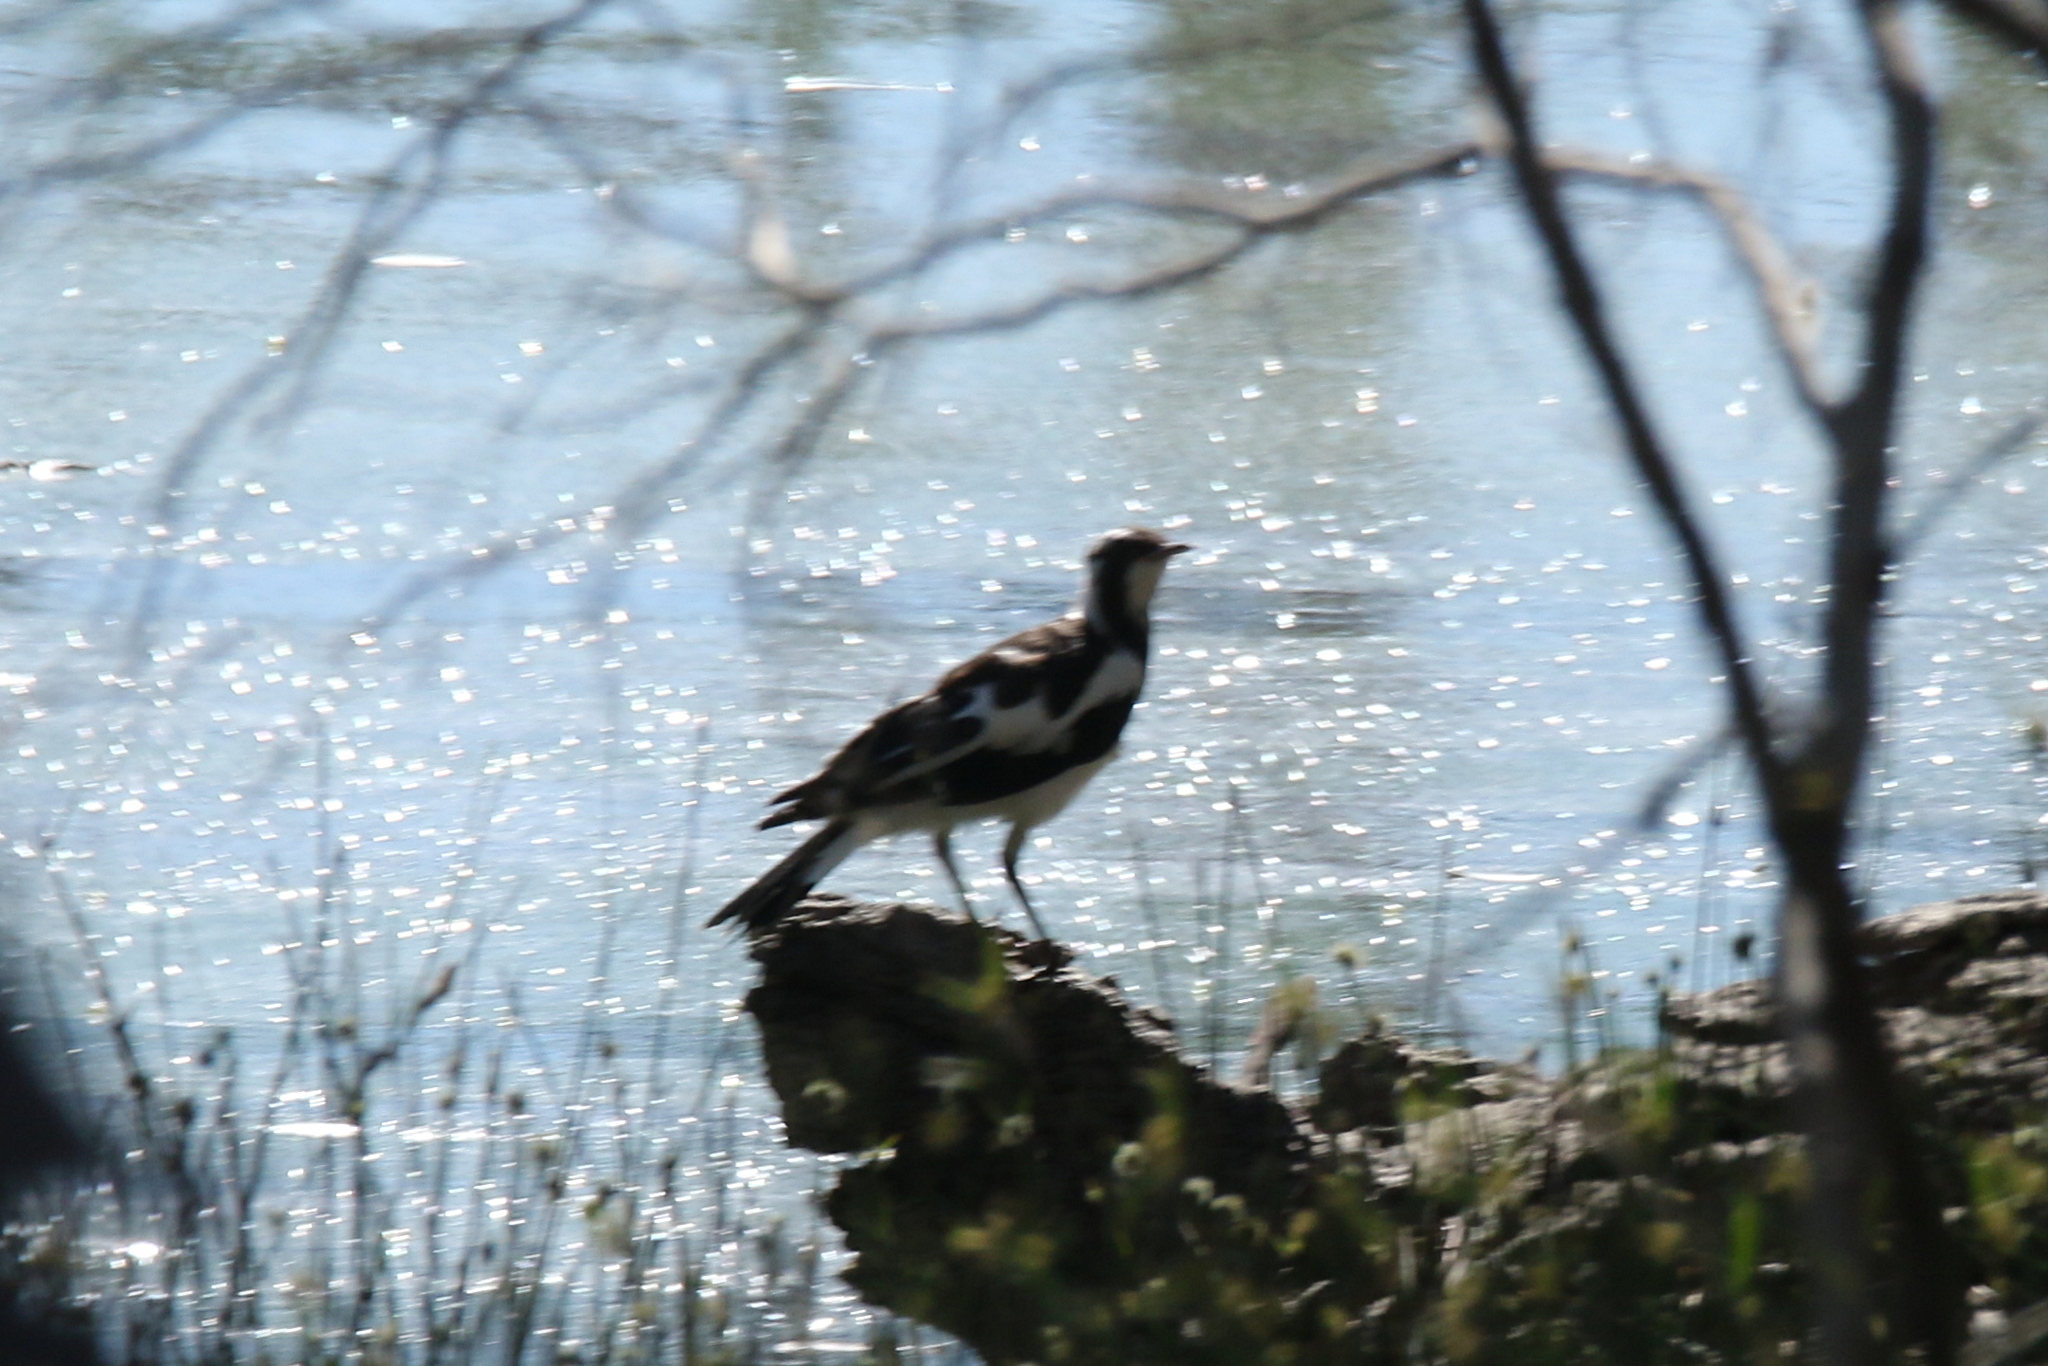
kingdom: Animalia
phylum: Chordata
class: Aves
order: Passeriformes
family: Monarchidae
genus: Grallina
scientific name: Grallina cyanoleuca
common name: Magpie-lark
